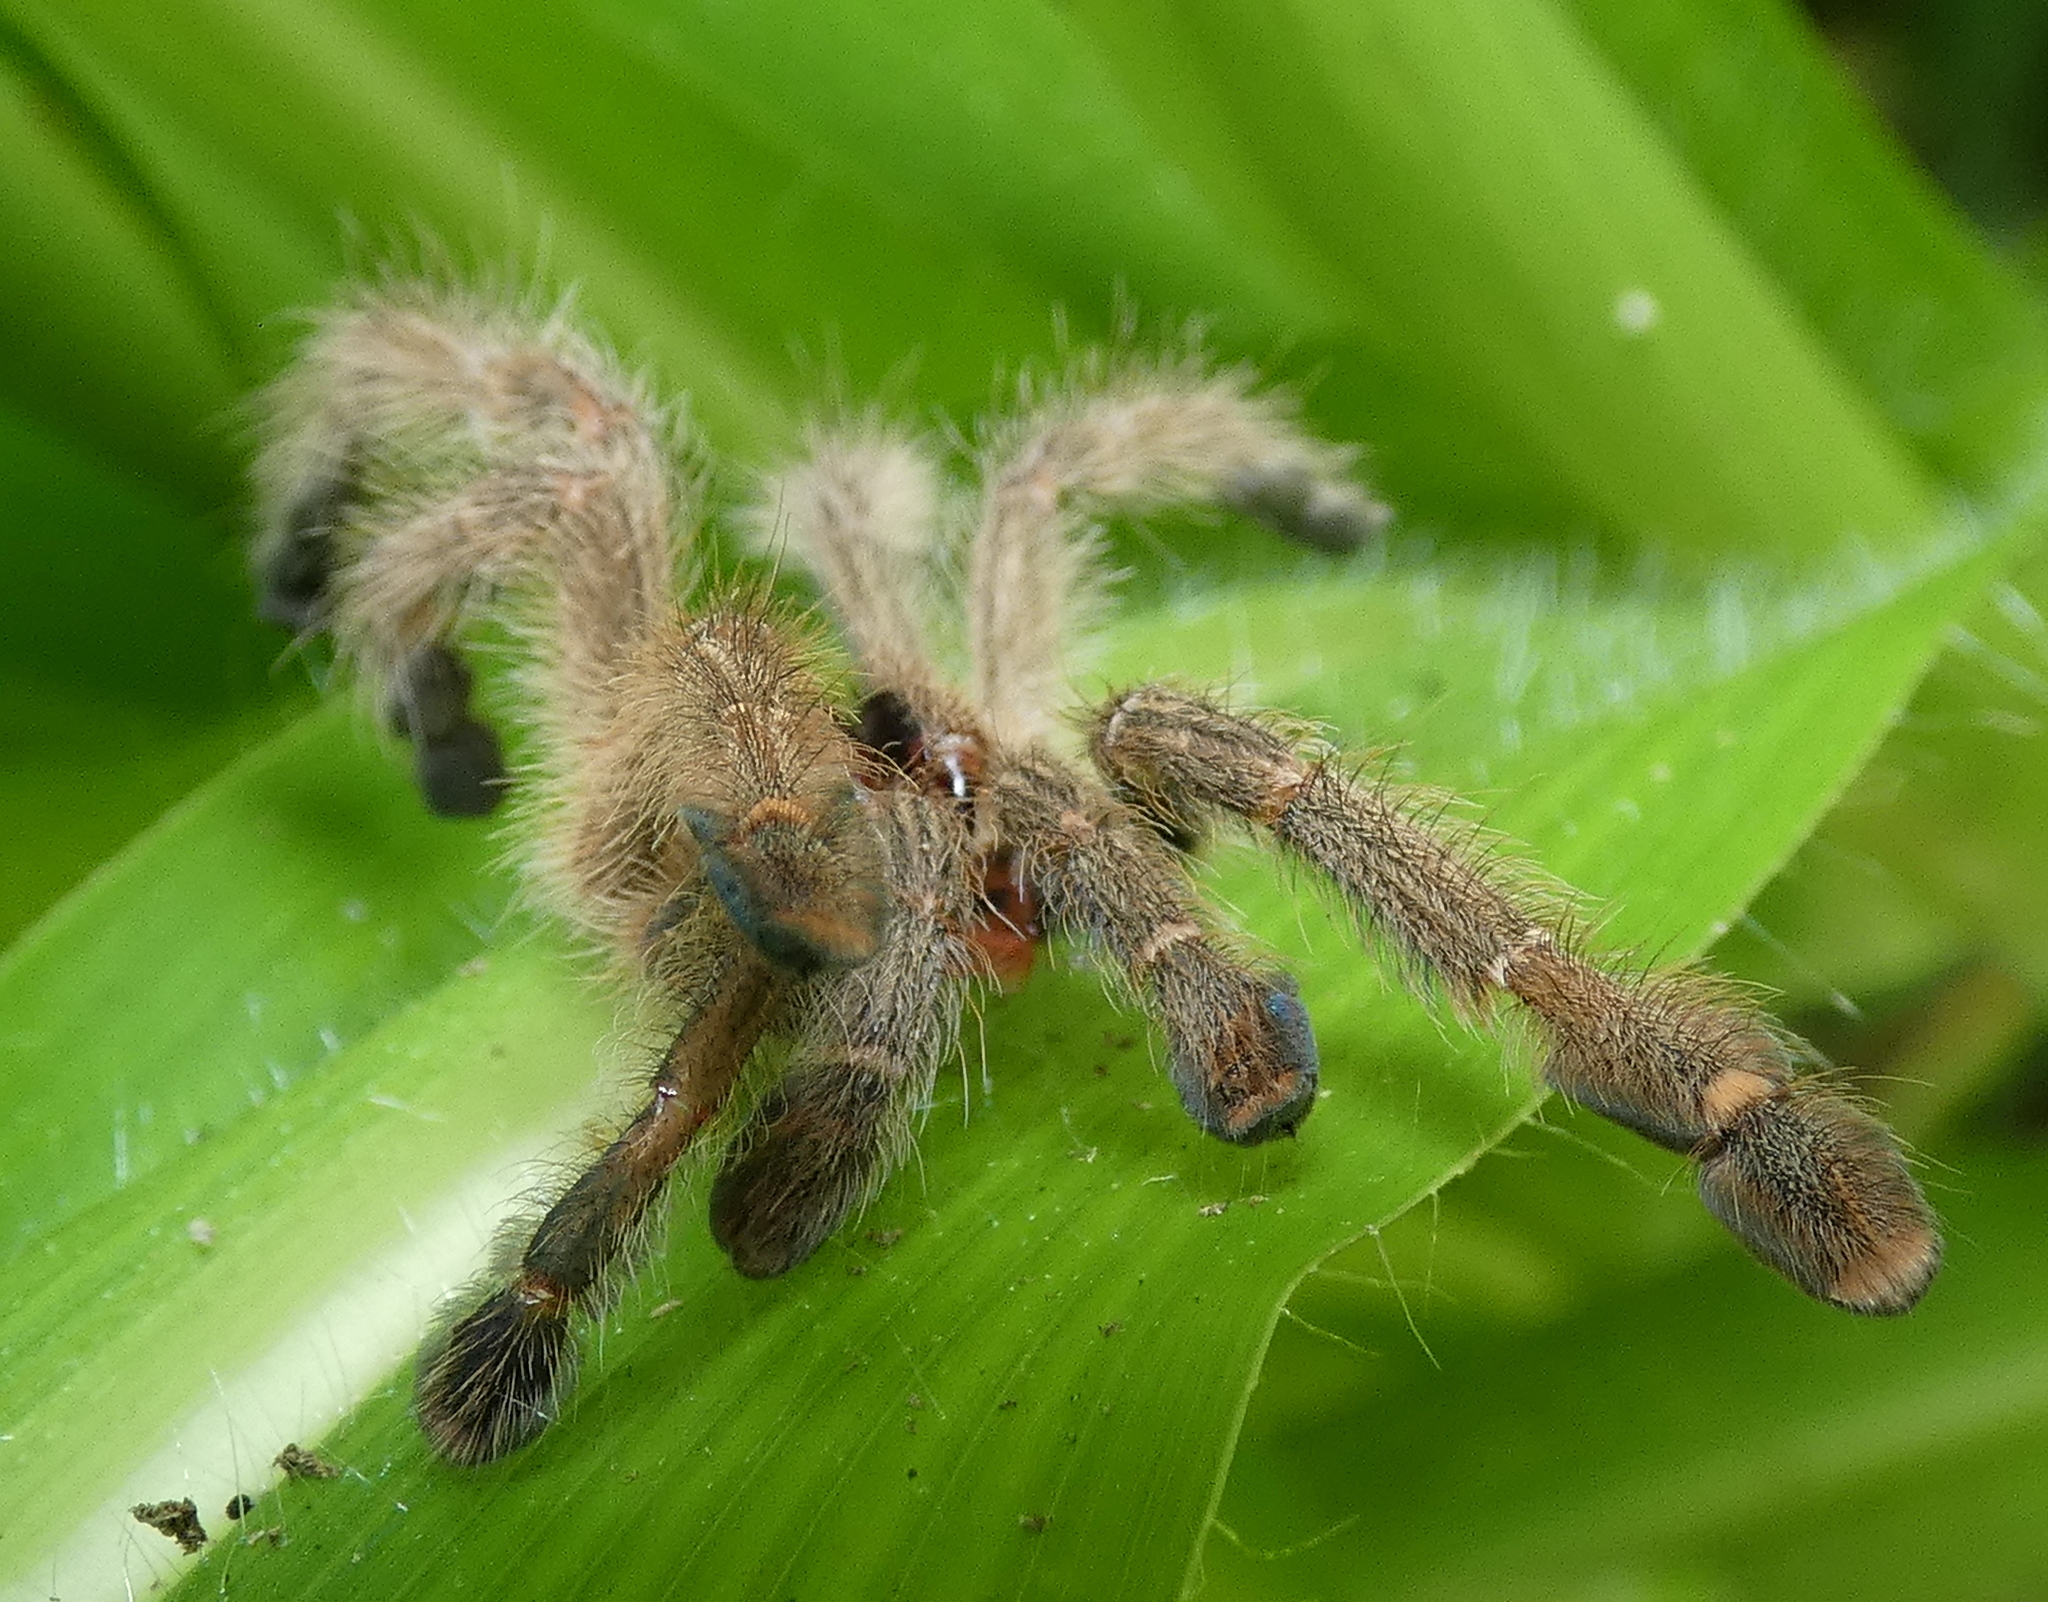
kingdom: Animalia
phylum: Arthropoda
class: Arachnida
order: Araneae
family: Theraphosidae
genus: Iridopelma
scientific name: Iridopelma hirsutum
